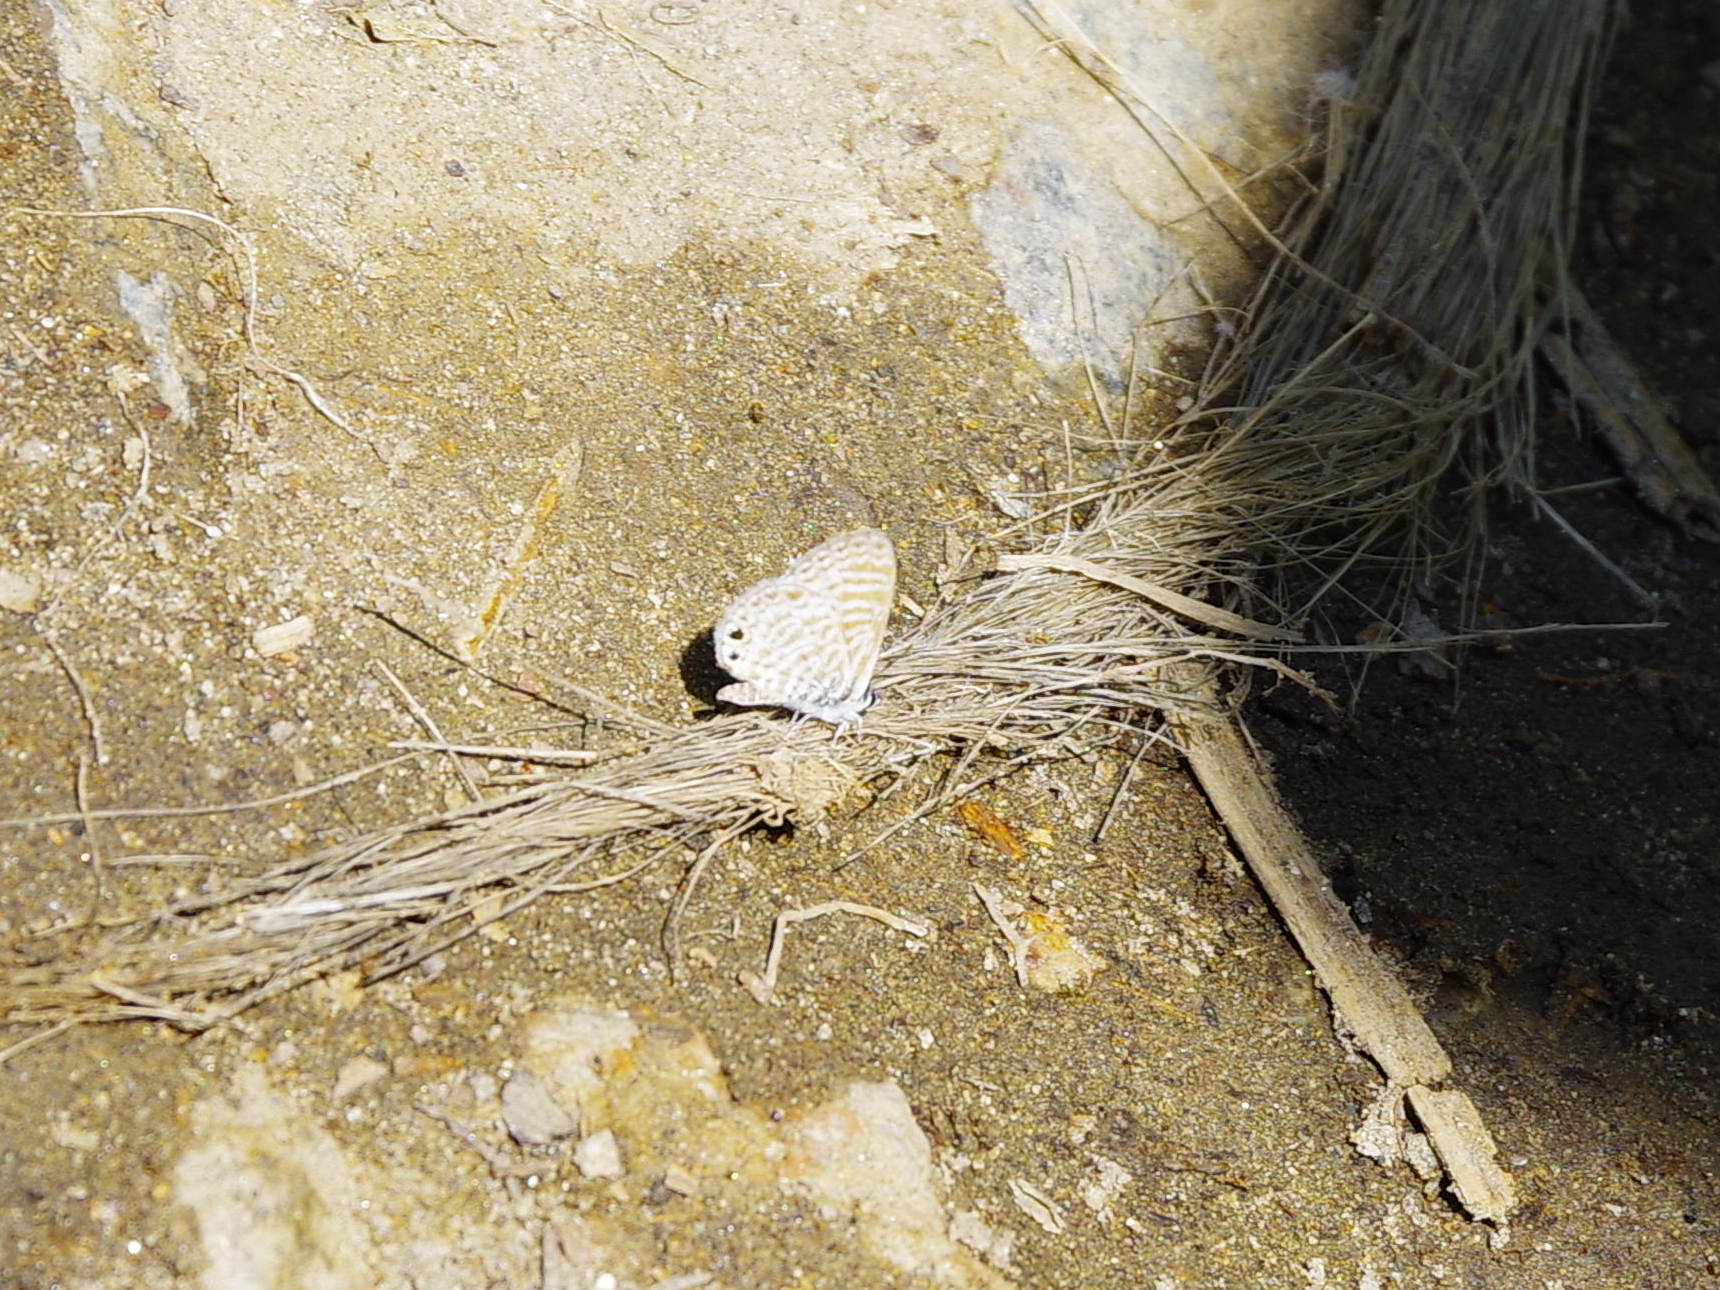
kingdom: Animalia
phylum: Arthropoda
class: Insecta
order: Lepidoptera
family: Lycaenidae
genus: Leptotes
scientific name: Leptotes marina
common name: Marine blue
